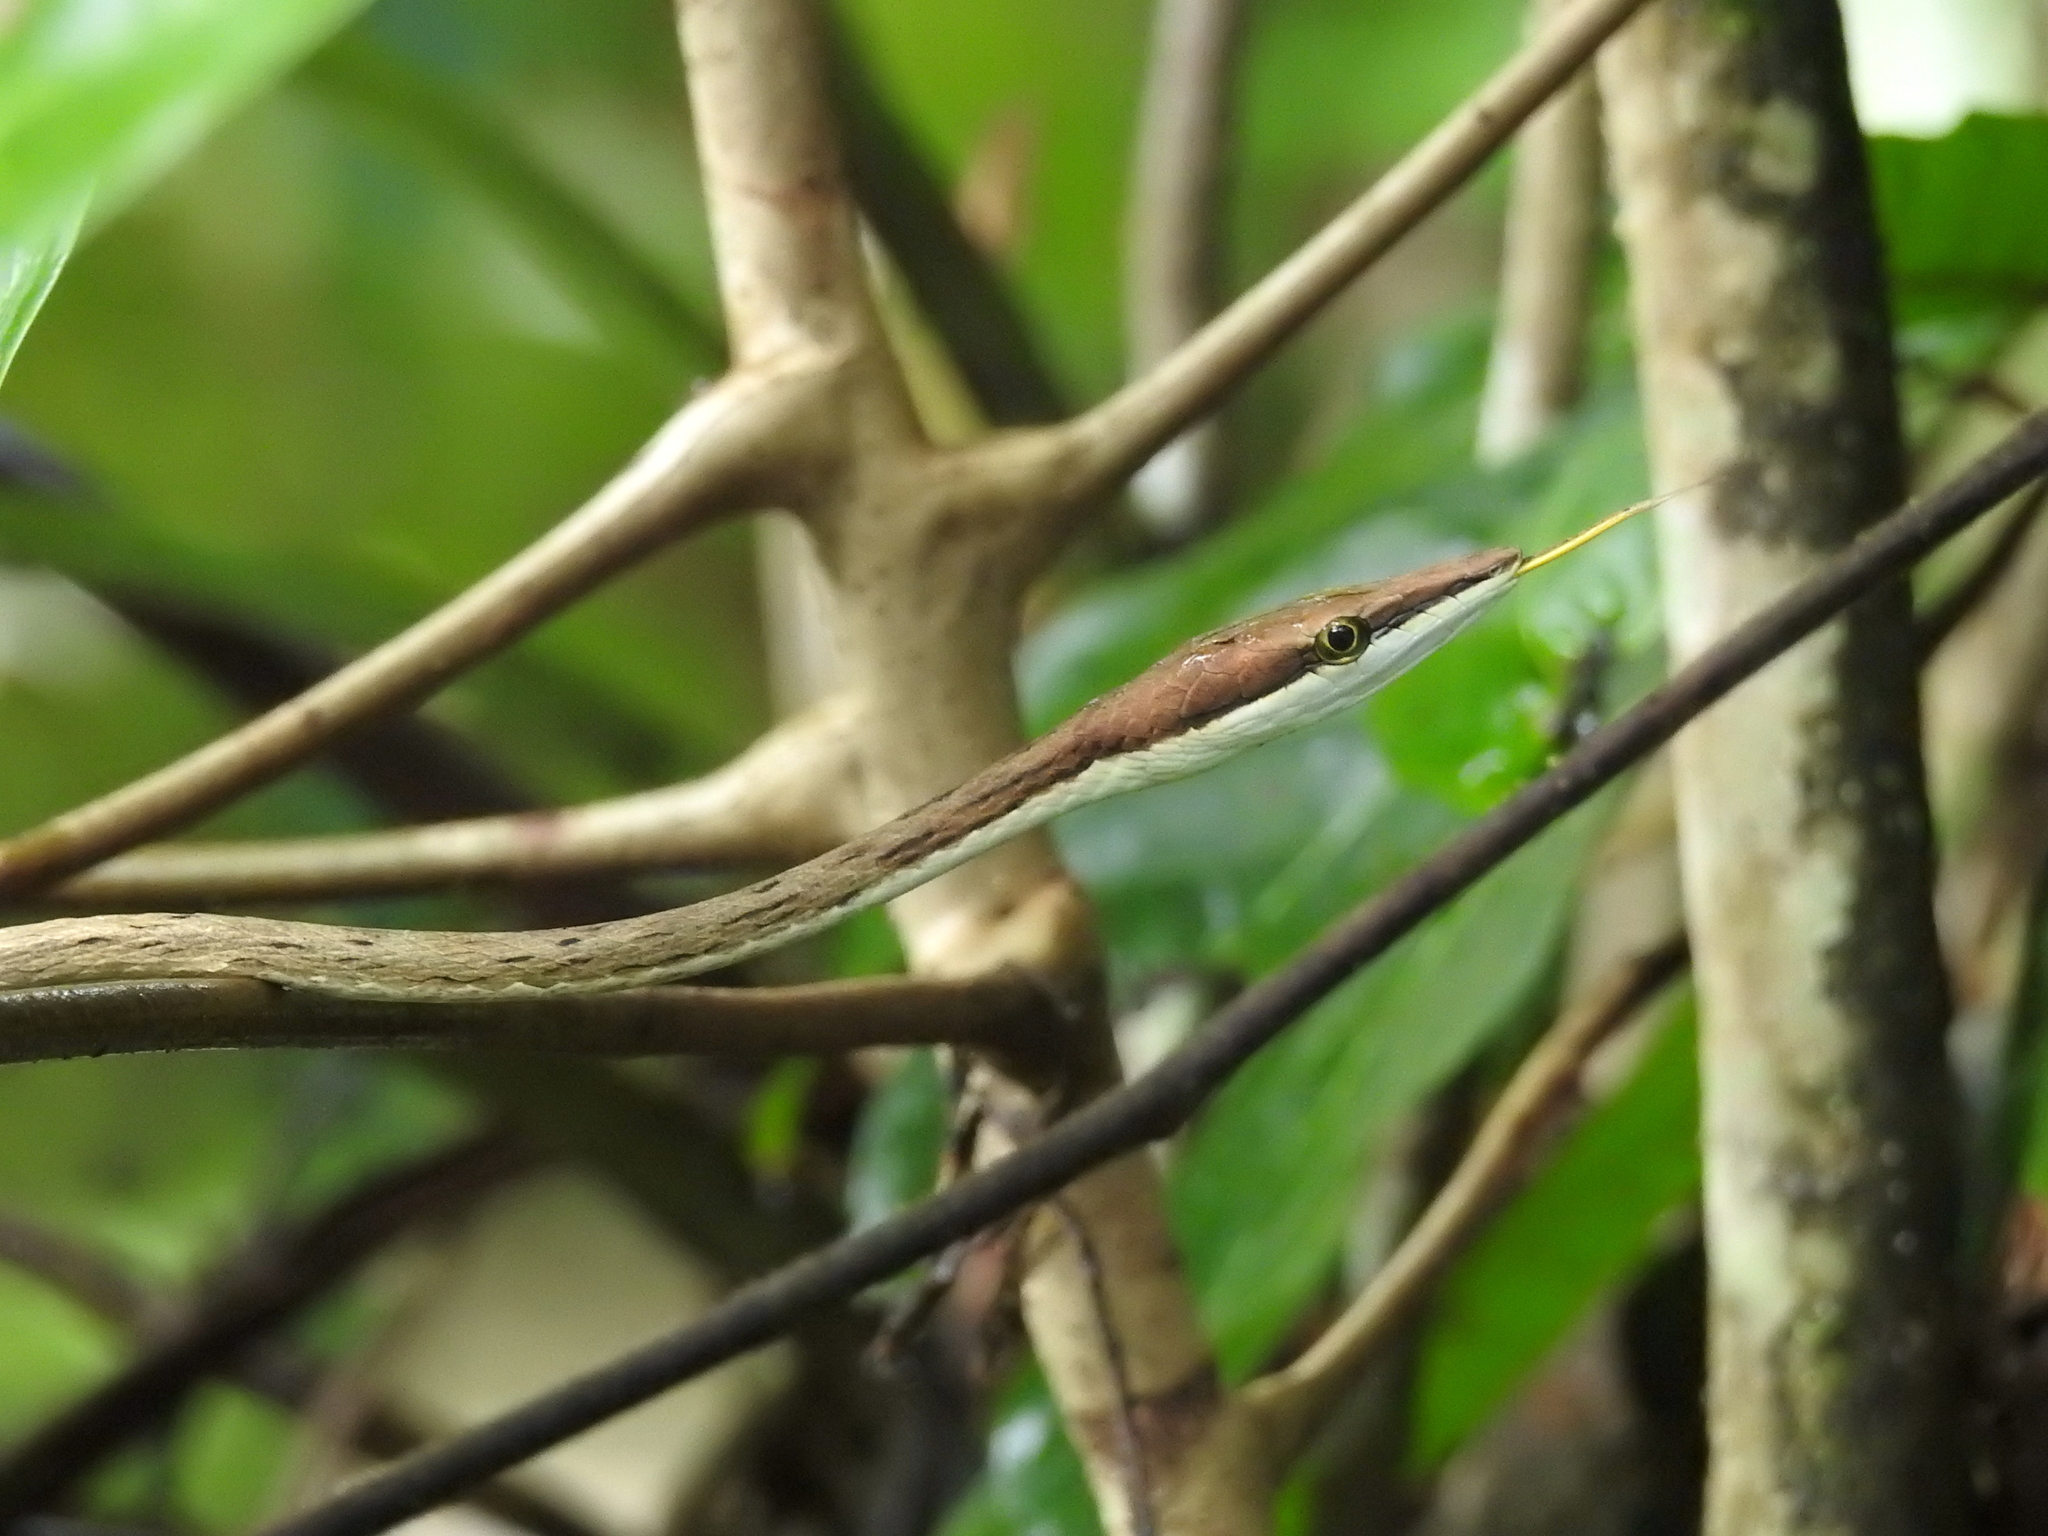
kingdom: Animalia
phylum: Chordata
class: Squamata
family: Colubridae
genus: Oxybelis
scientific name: Oxybelis koehleri
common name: Köhler’s vine snake
